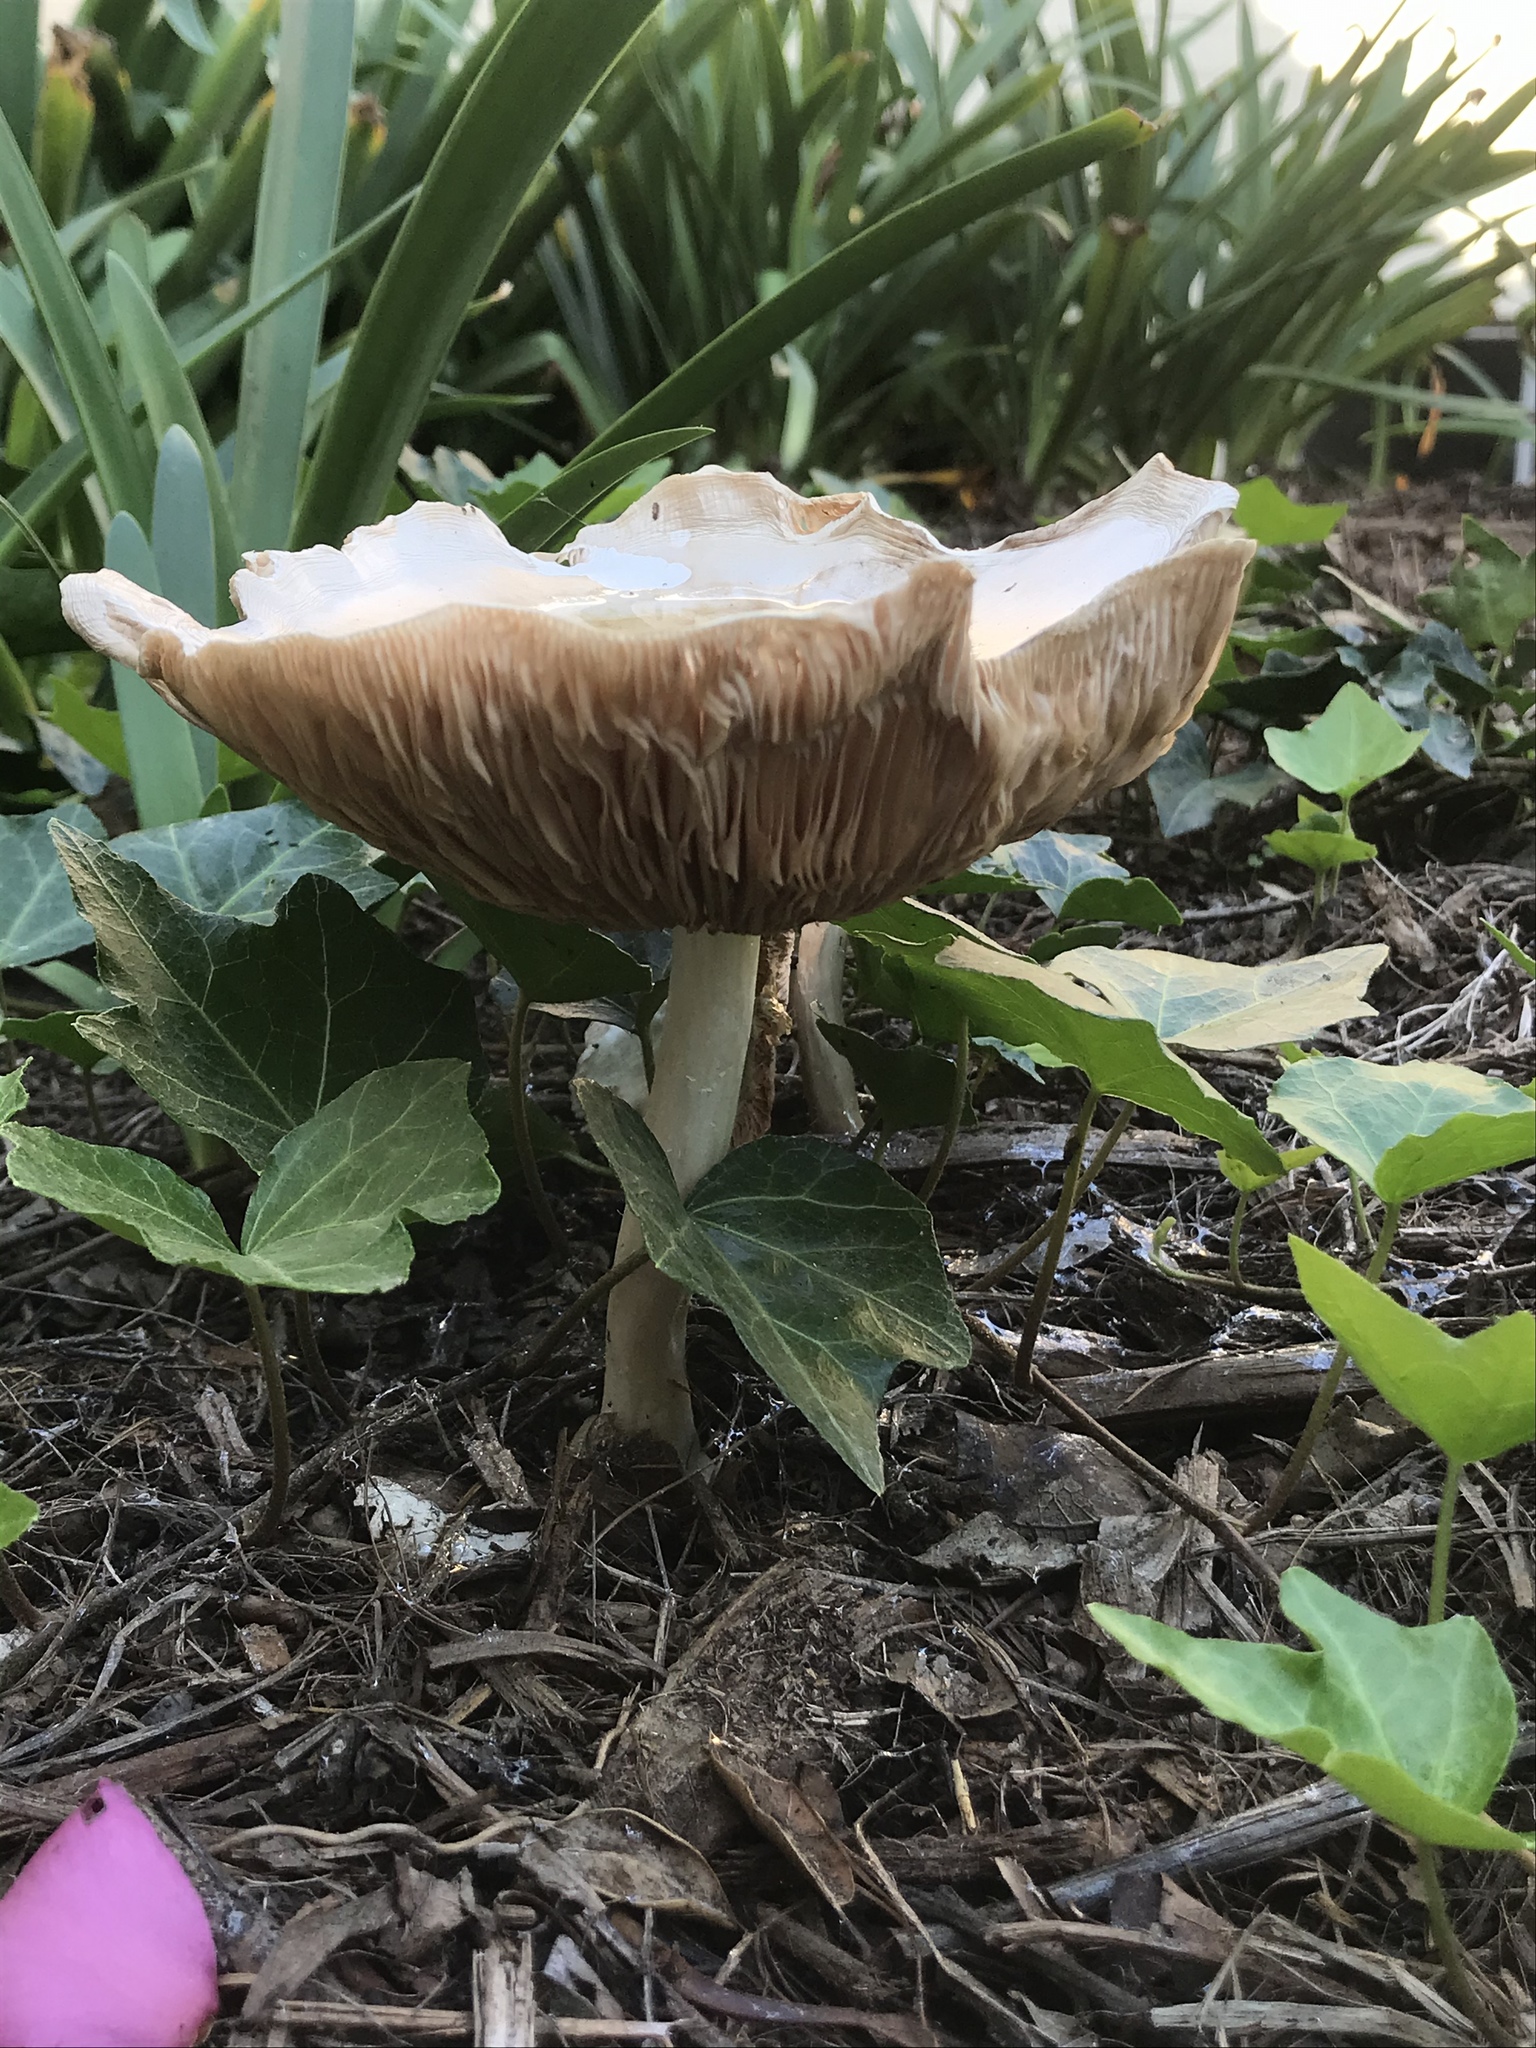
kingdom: Fungi
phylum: Basidiomycota
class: Agaricomycetes
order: Agaricales
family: Pluteaceae
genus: Volvopluteus
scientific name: Volvopluteus gloiocephalus
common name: Stubble rosegill
